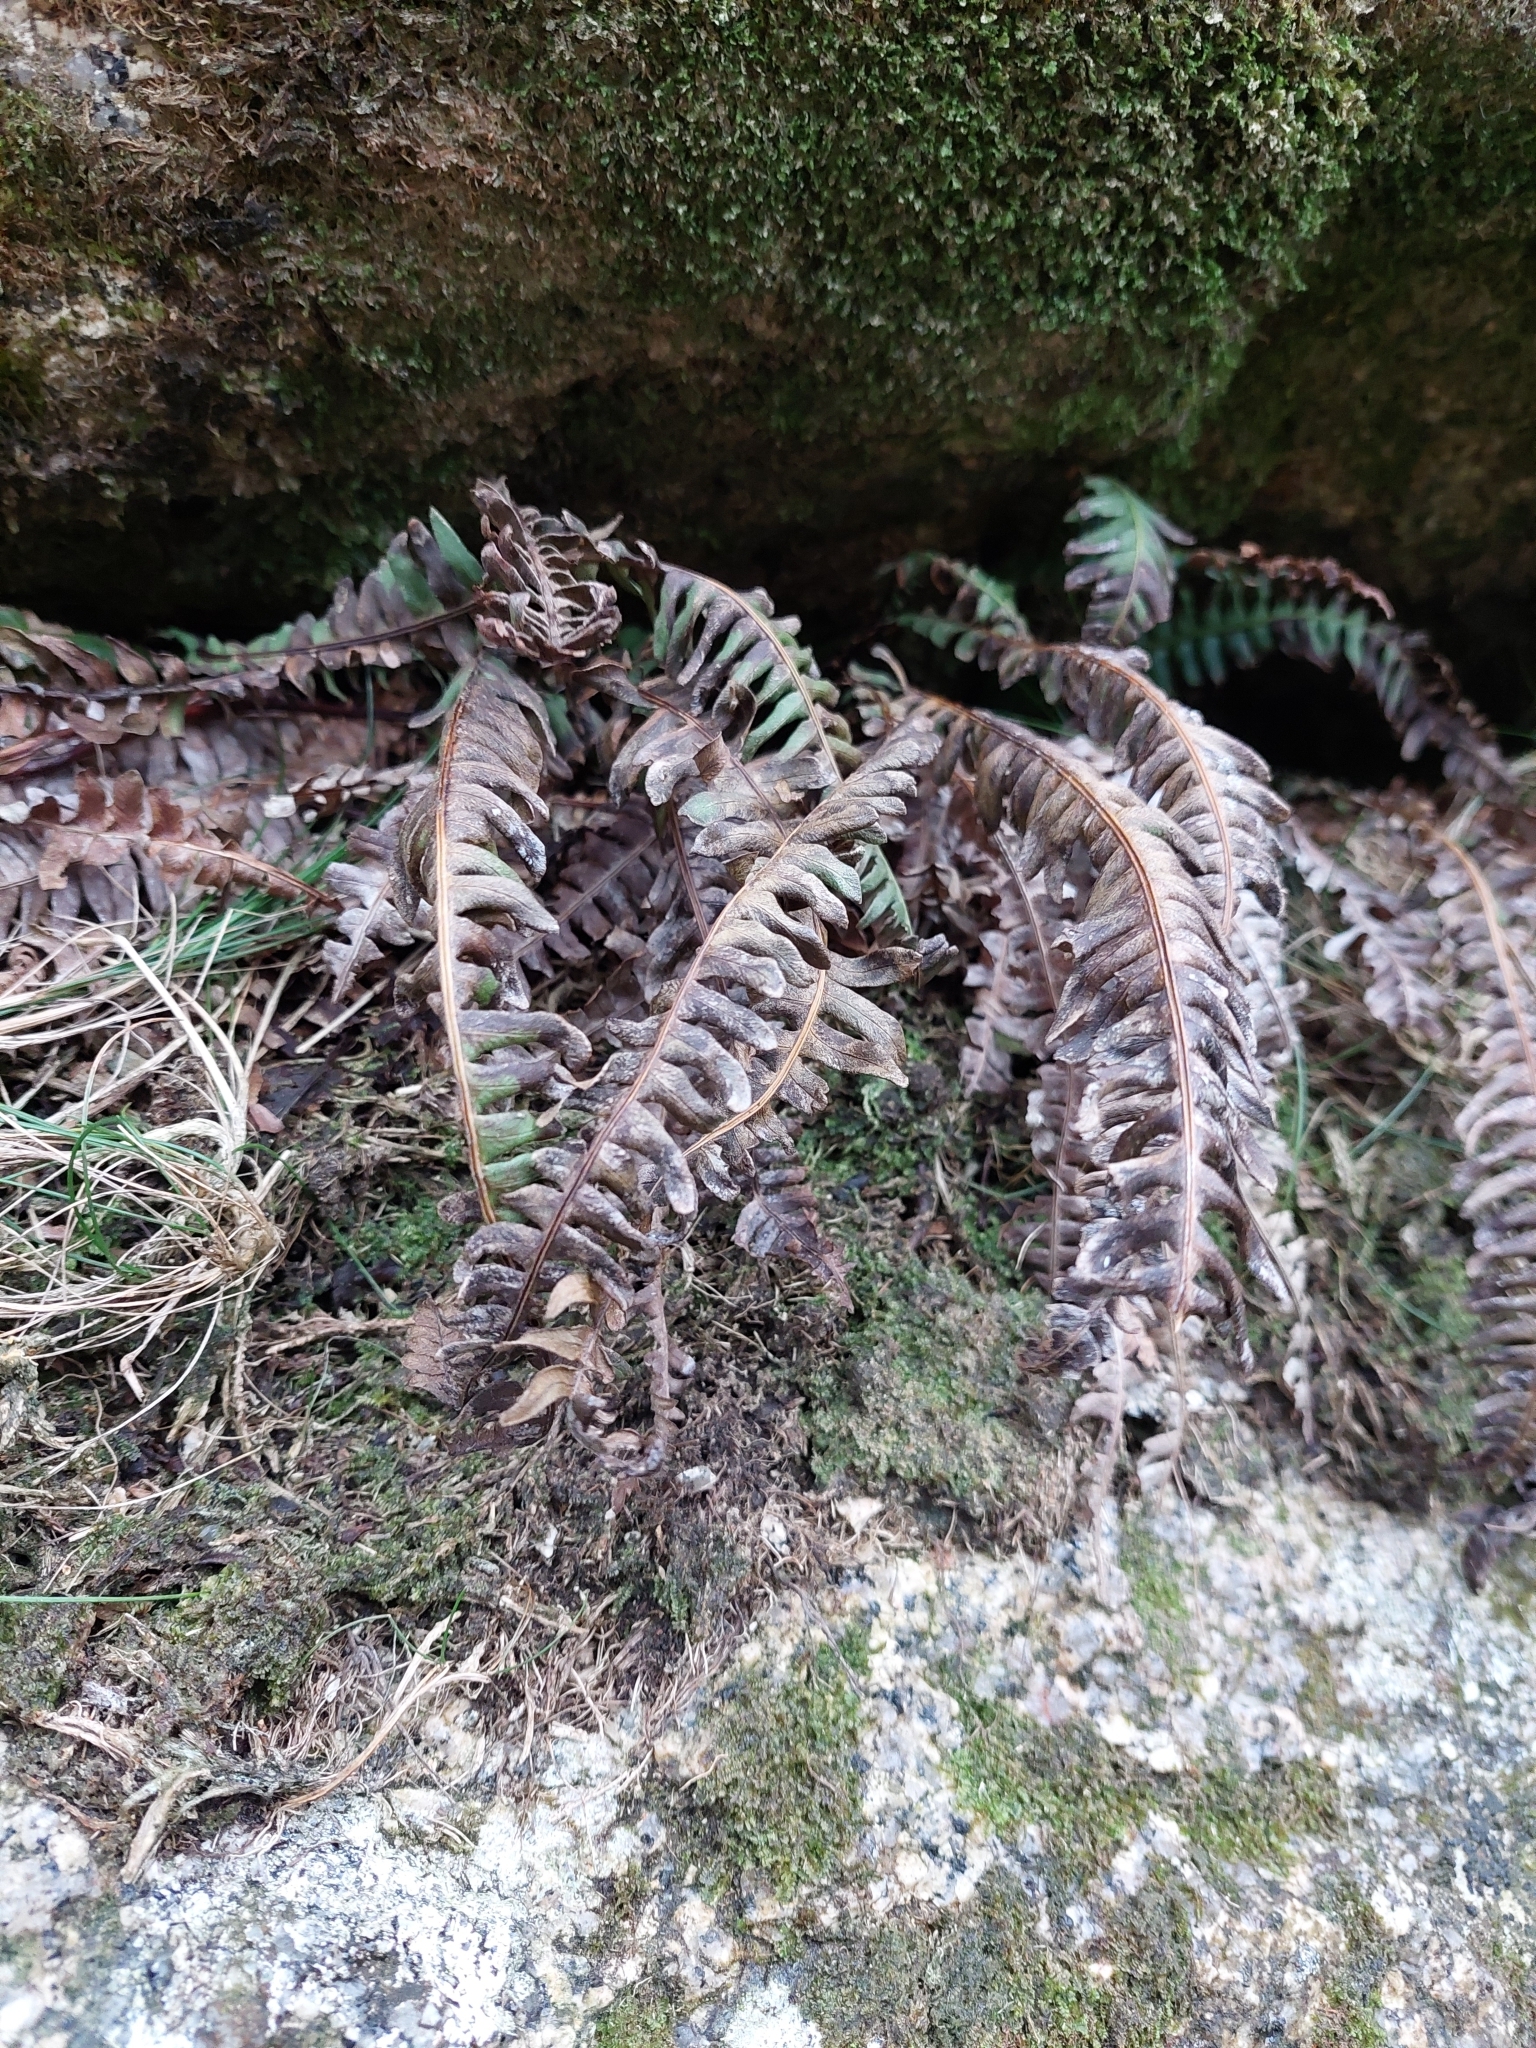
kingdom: Plantae
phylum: Tracheophyta
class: Polypodiopsida
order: Polypodiales
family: Blechnaceae
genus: Struthiopteris
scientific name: Struthiopteris spicant
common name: Deer fern
